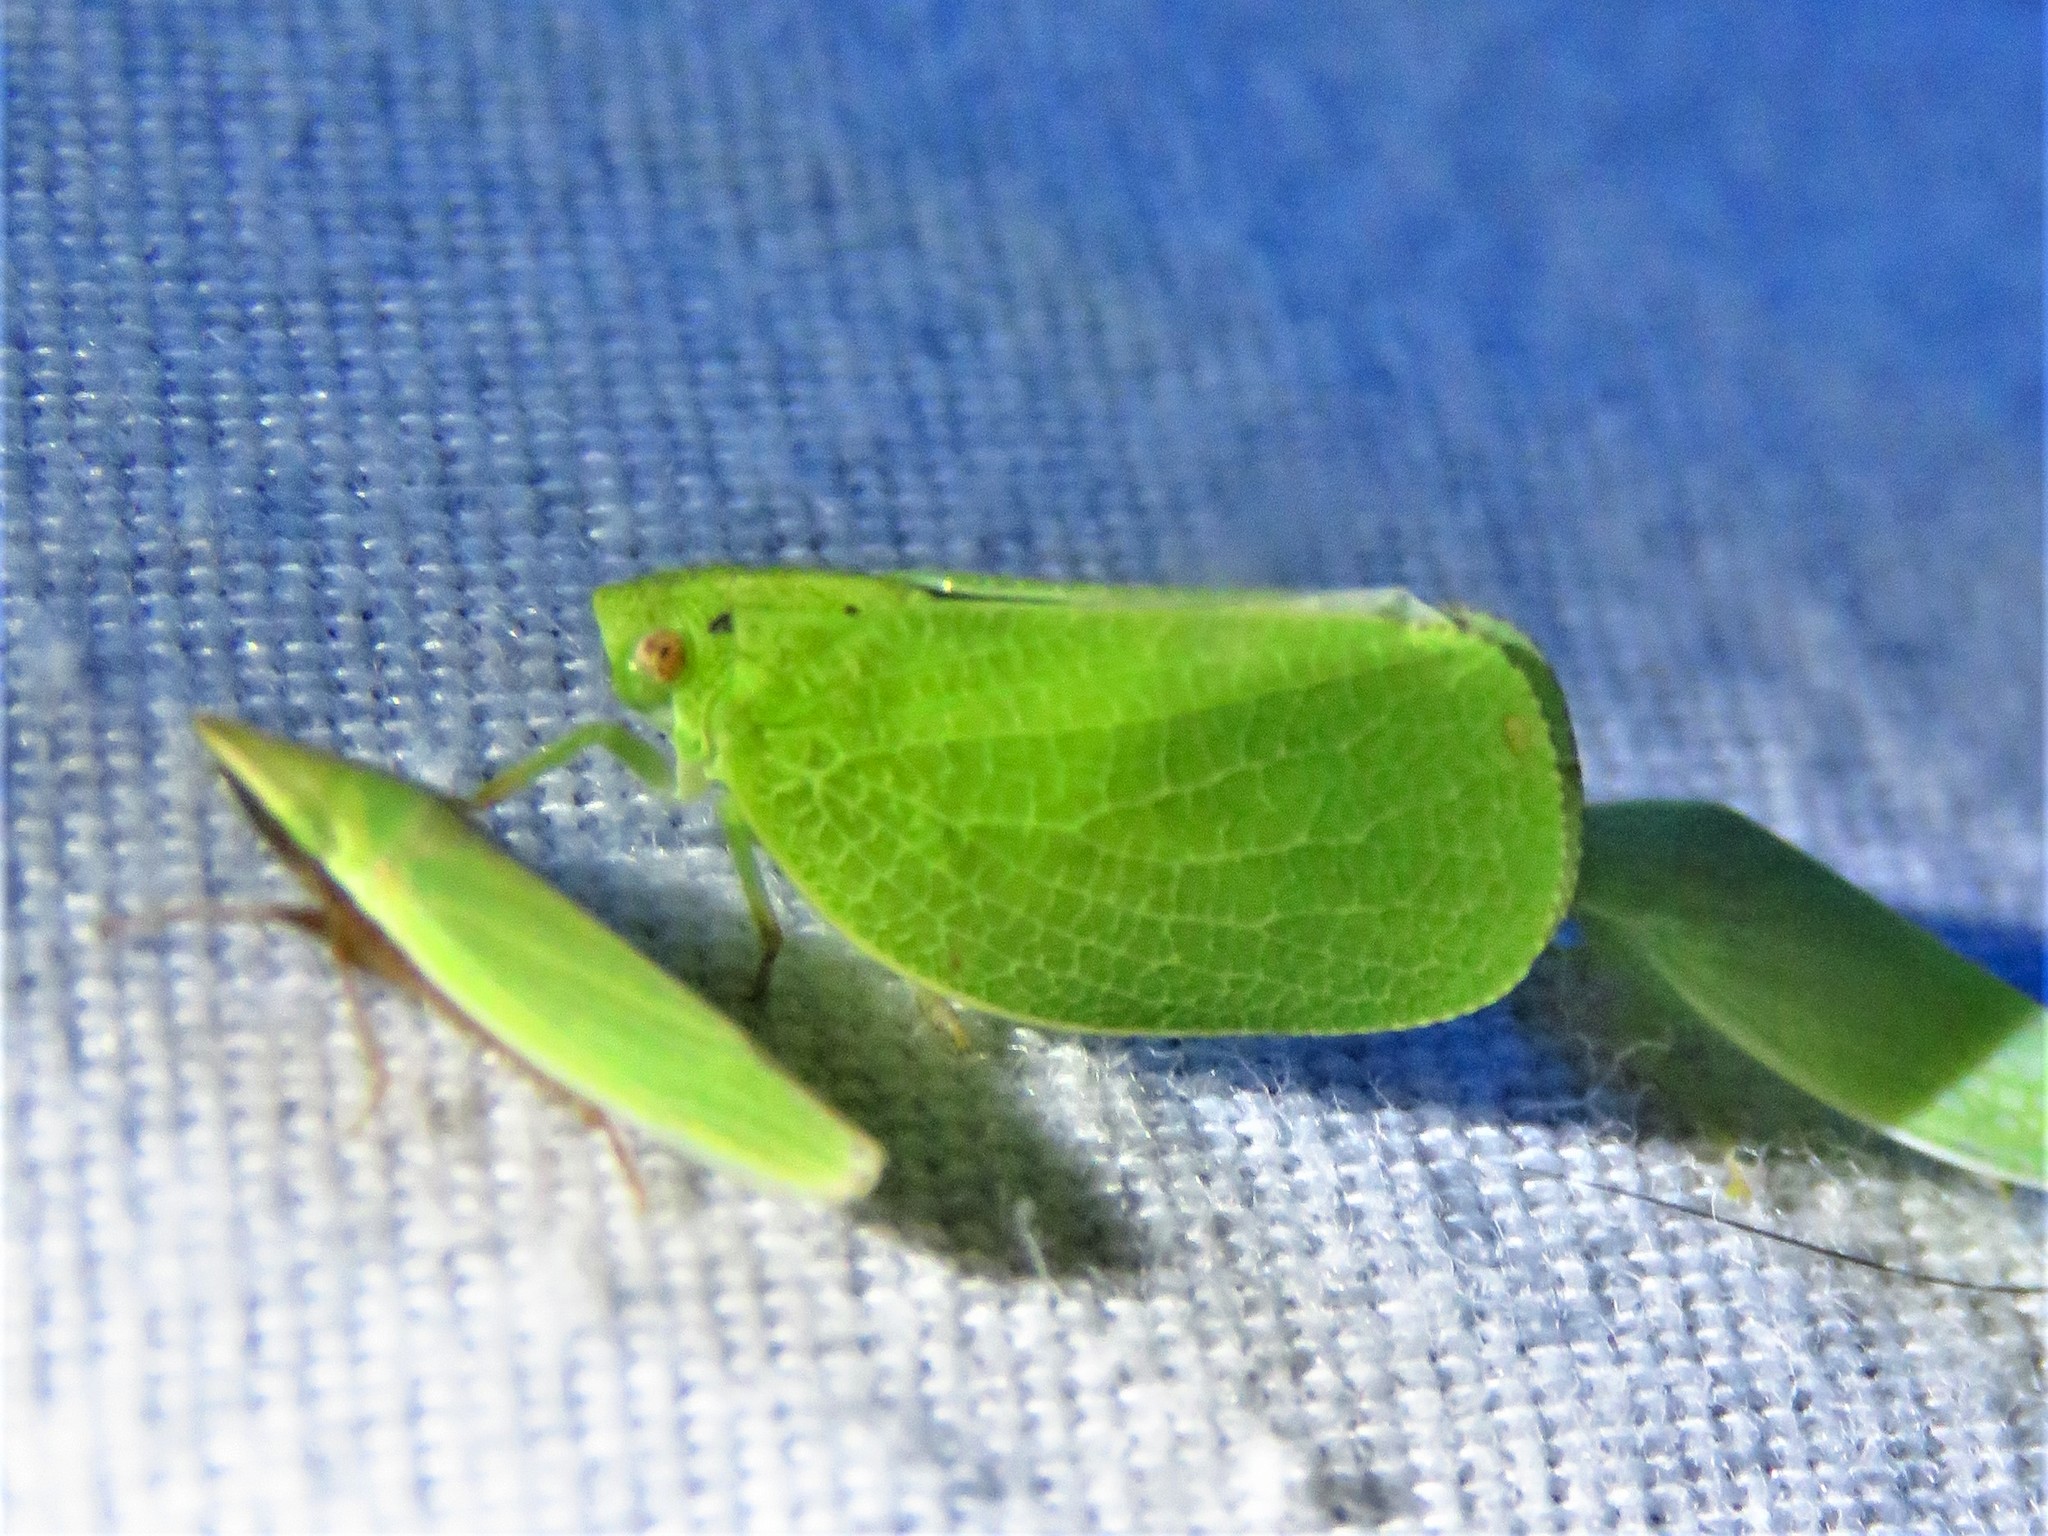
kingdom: Animalia
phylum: Arthropoda
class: Insecta
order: Hemiptera
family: Acanaloniidae
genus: Acanalonia
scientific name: Acanalonia conica
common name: Green cone-headed planthopper
